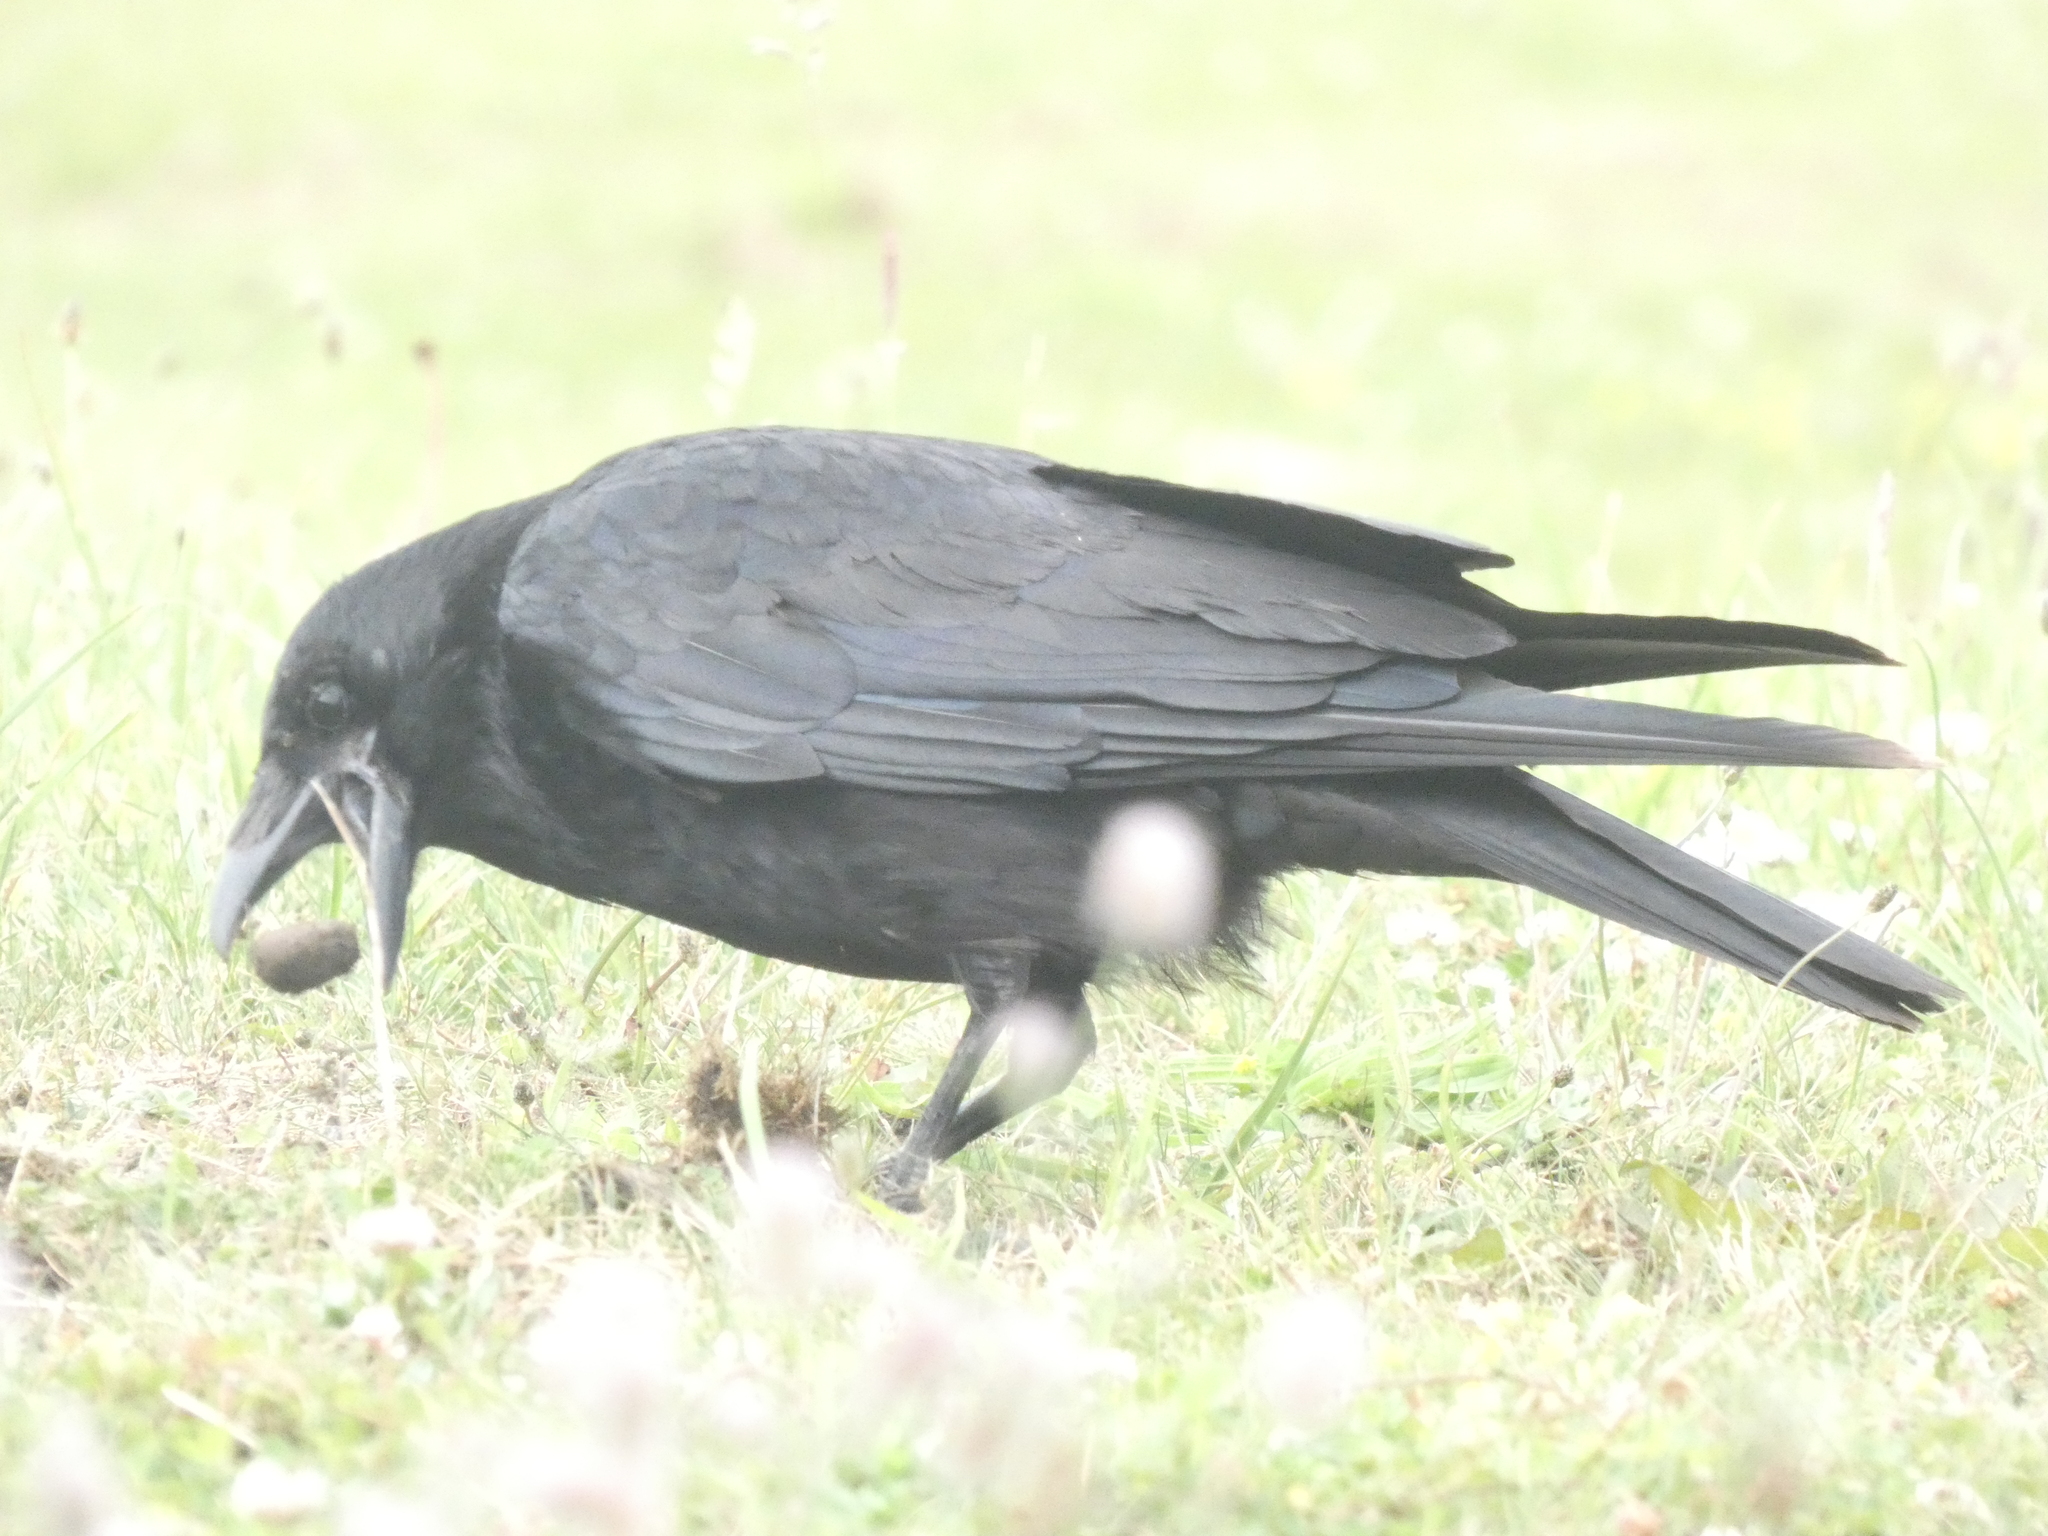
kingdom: Animalia
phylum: Chordata
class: Aves
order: Passeriformes
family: Corvidae
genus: Corvus
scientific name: Corvus corone
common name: Carrion crow
